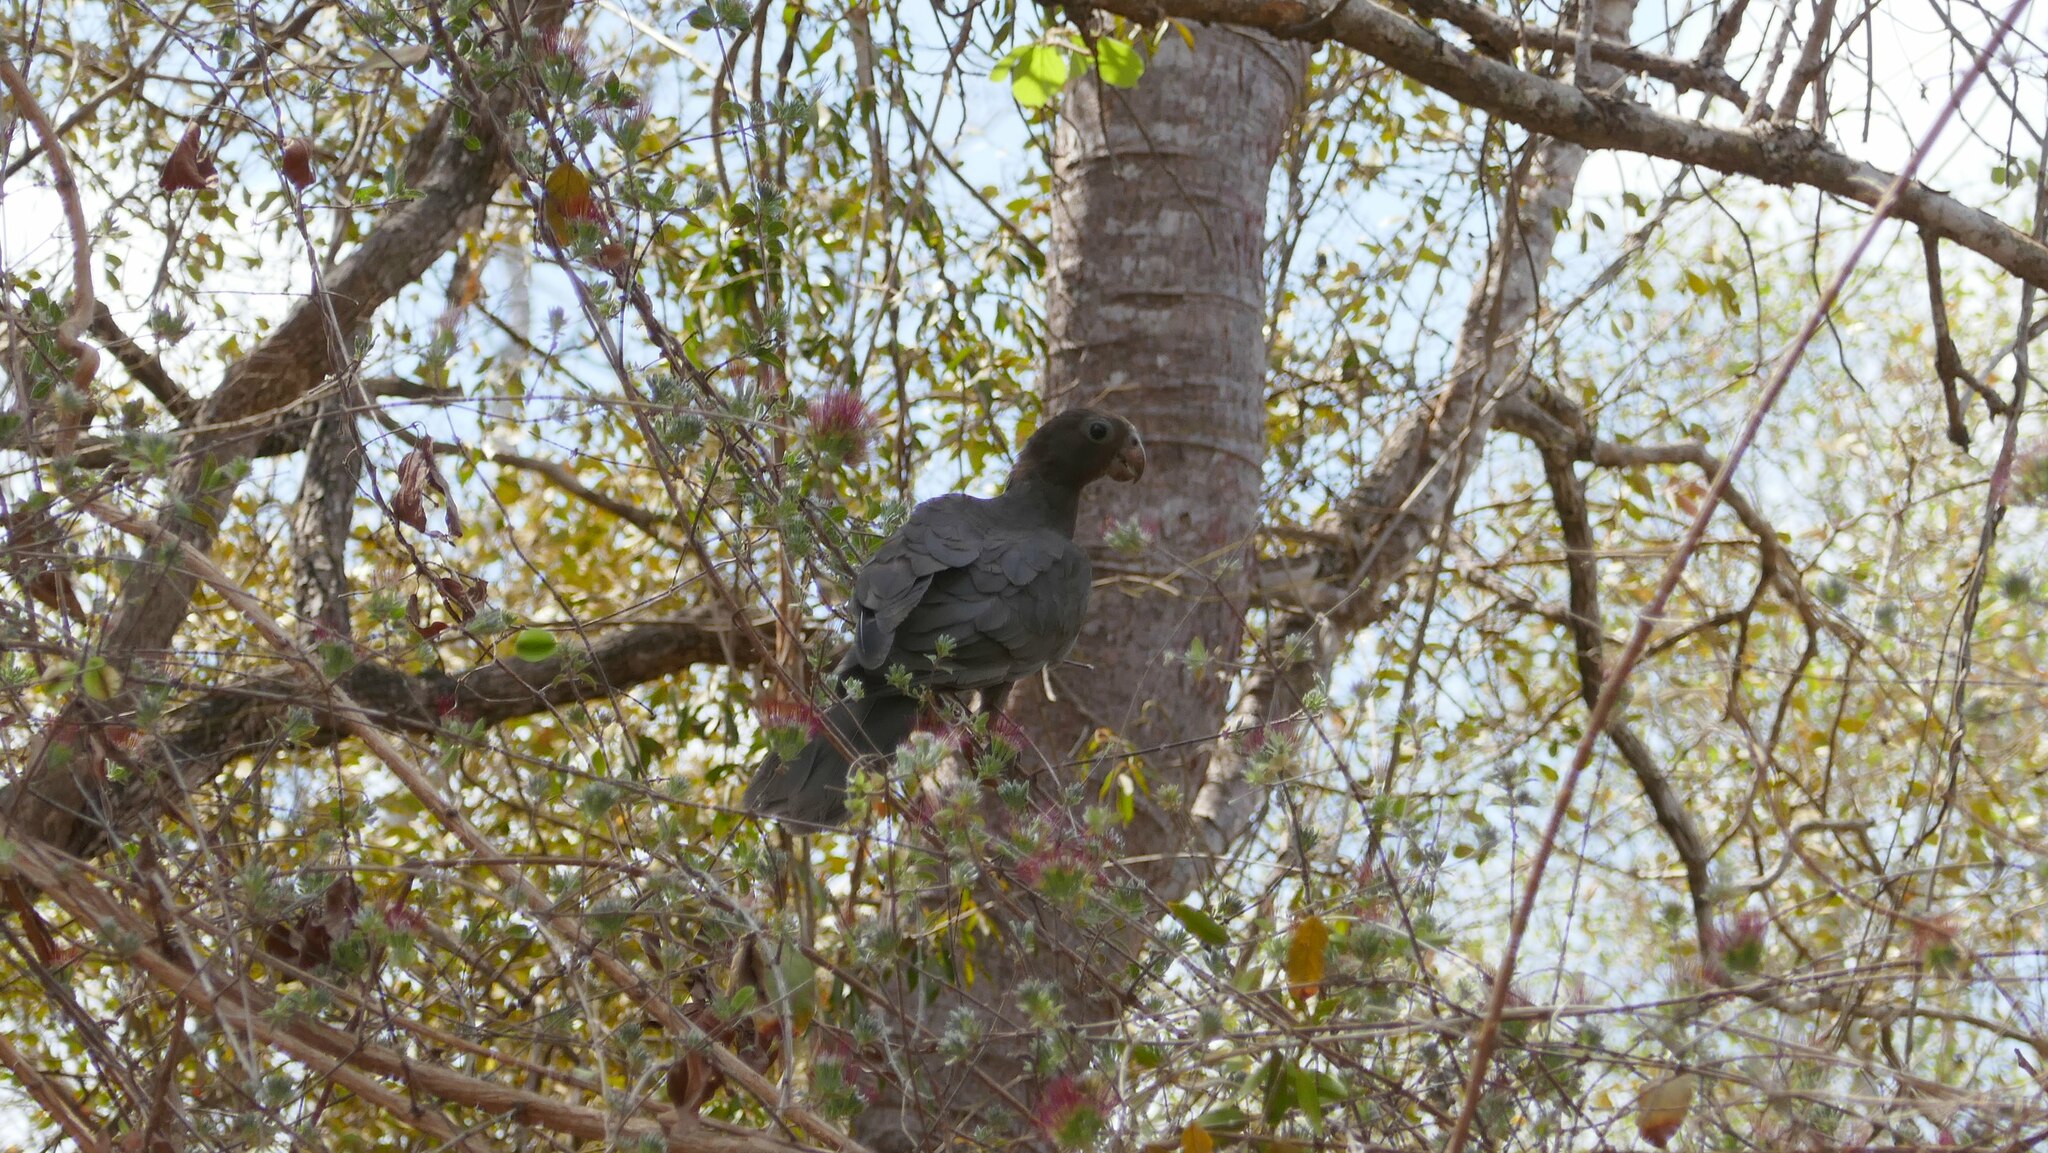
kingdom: Animalia
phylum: Chordata
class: Aves
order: Psittaciformes
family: Psittacidae
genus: Coracopsis
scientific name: Coracopsis vasa
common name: Greater vasa parrot
